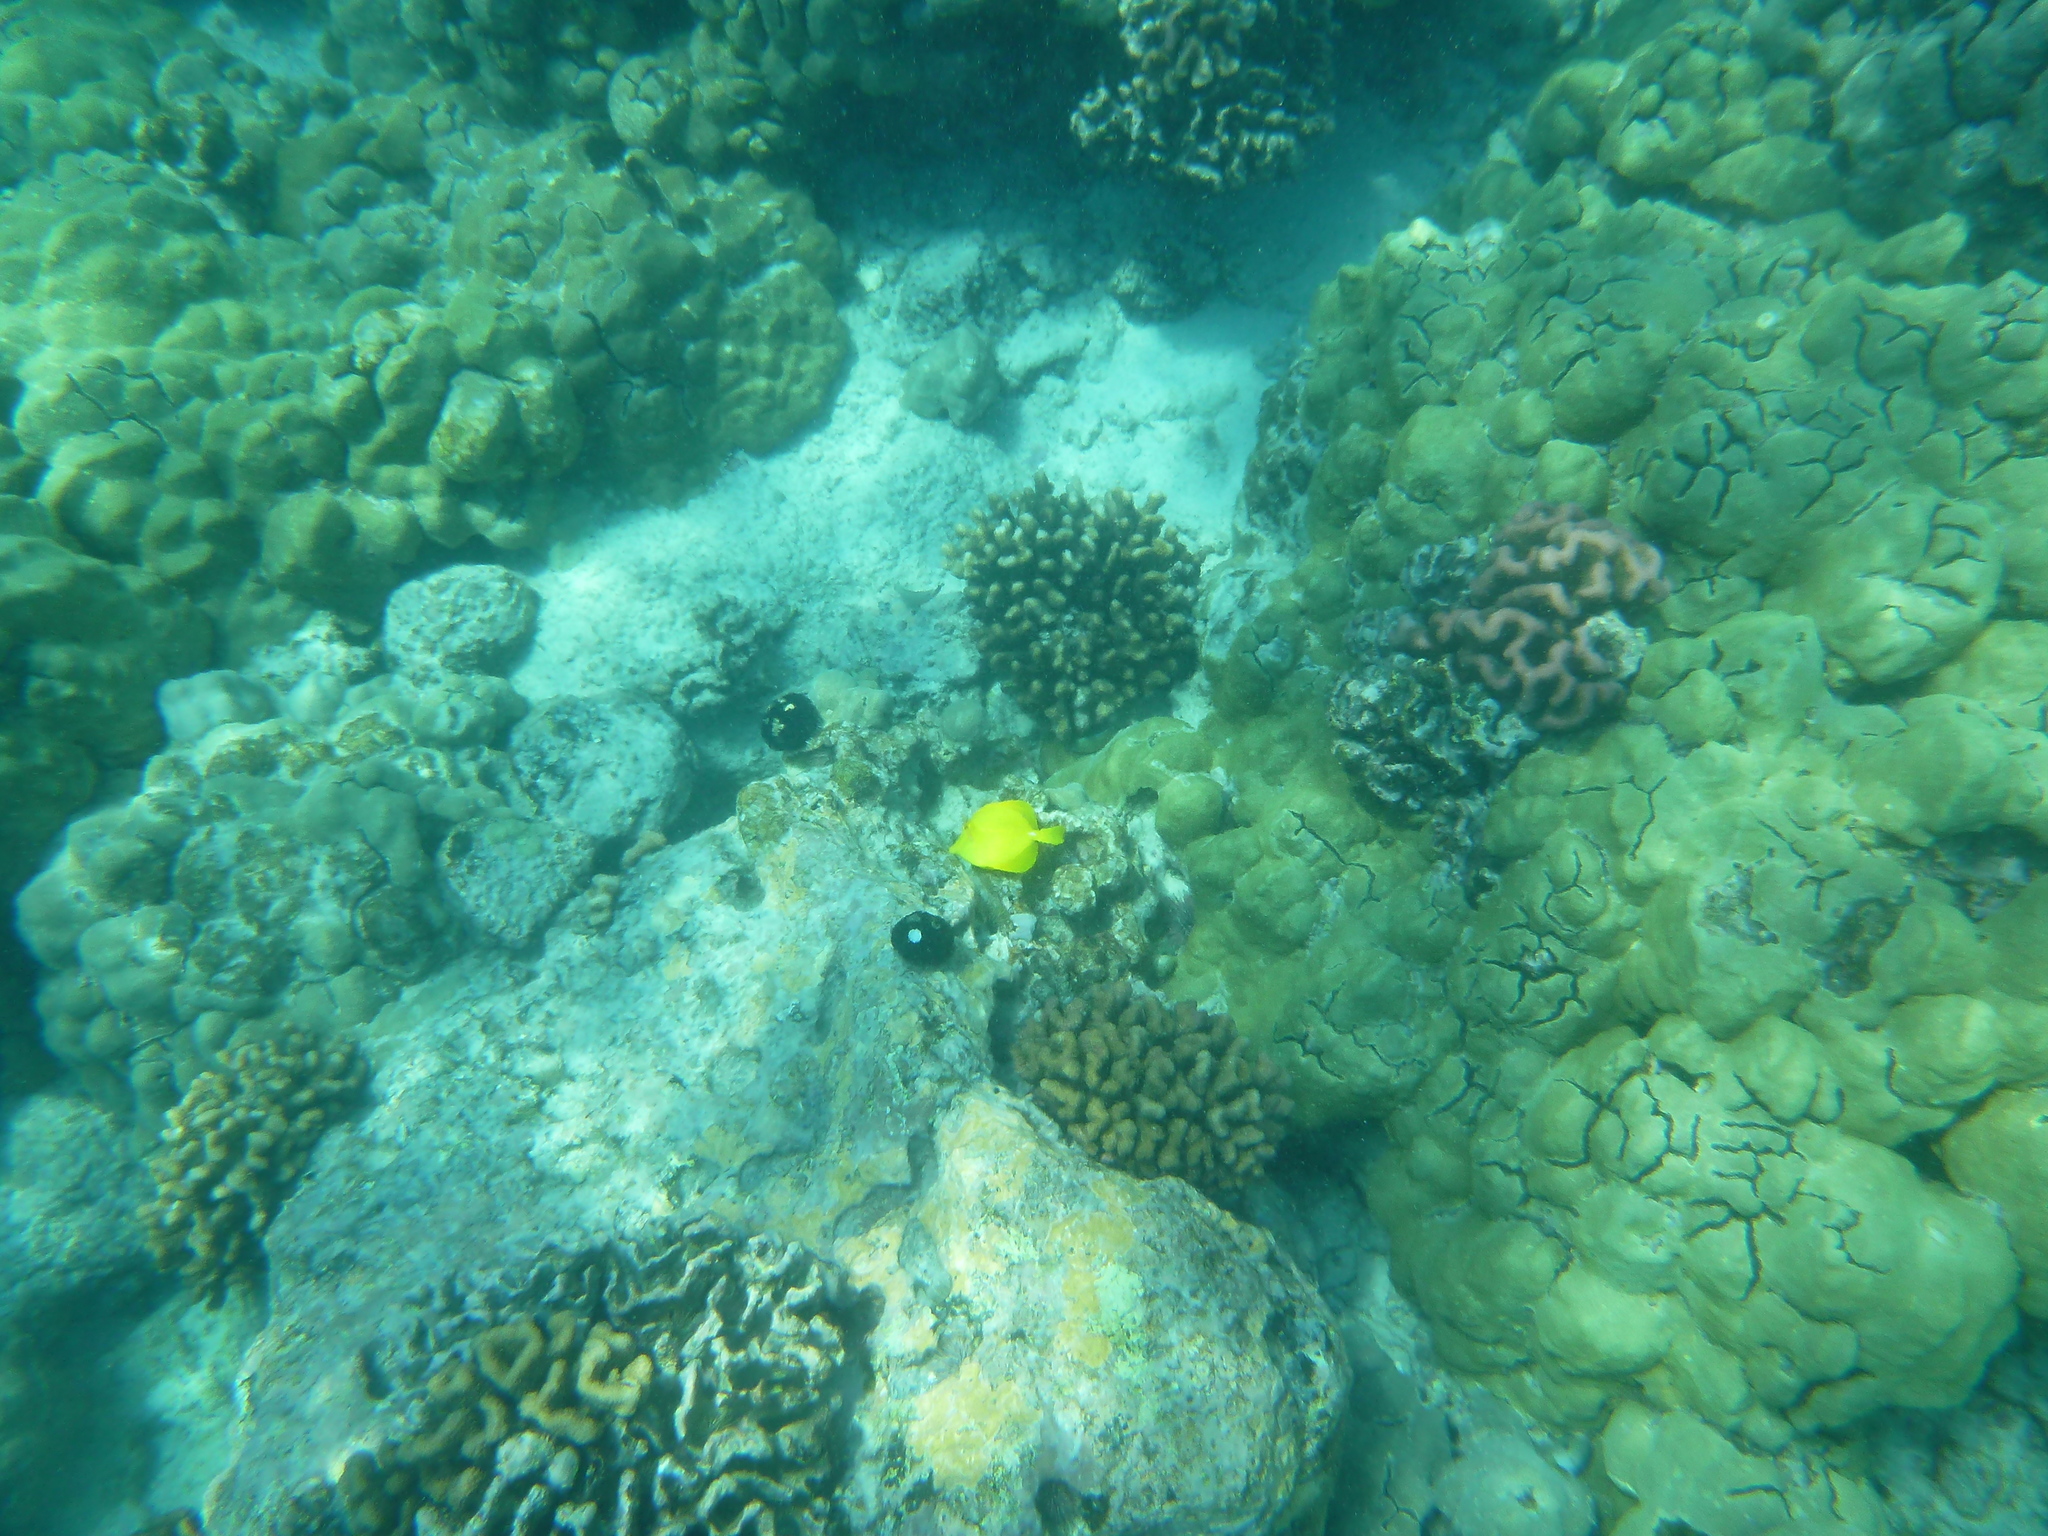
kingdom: Animalia
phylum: Chordata
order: Perciformes
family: Acanthuridae
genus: Zebrasoma
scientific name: Zebrasoma flavescens
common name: Yellow tang
